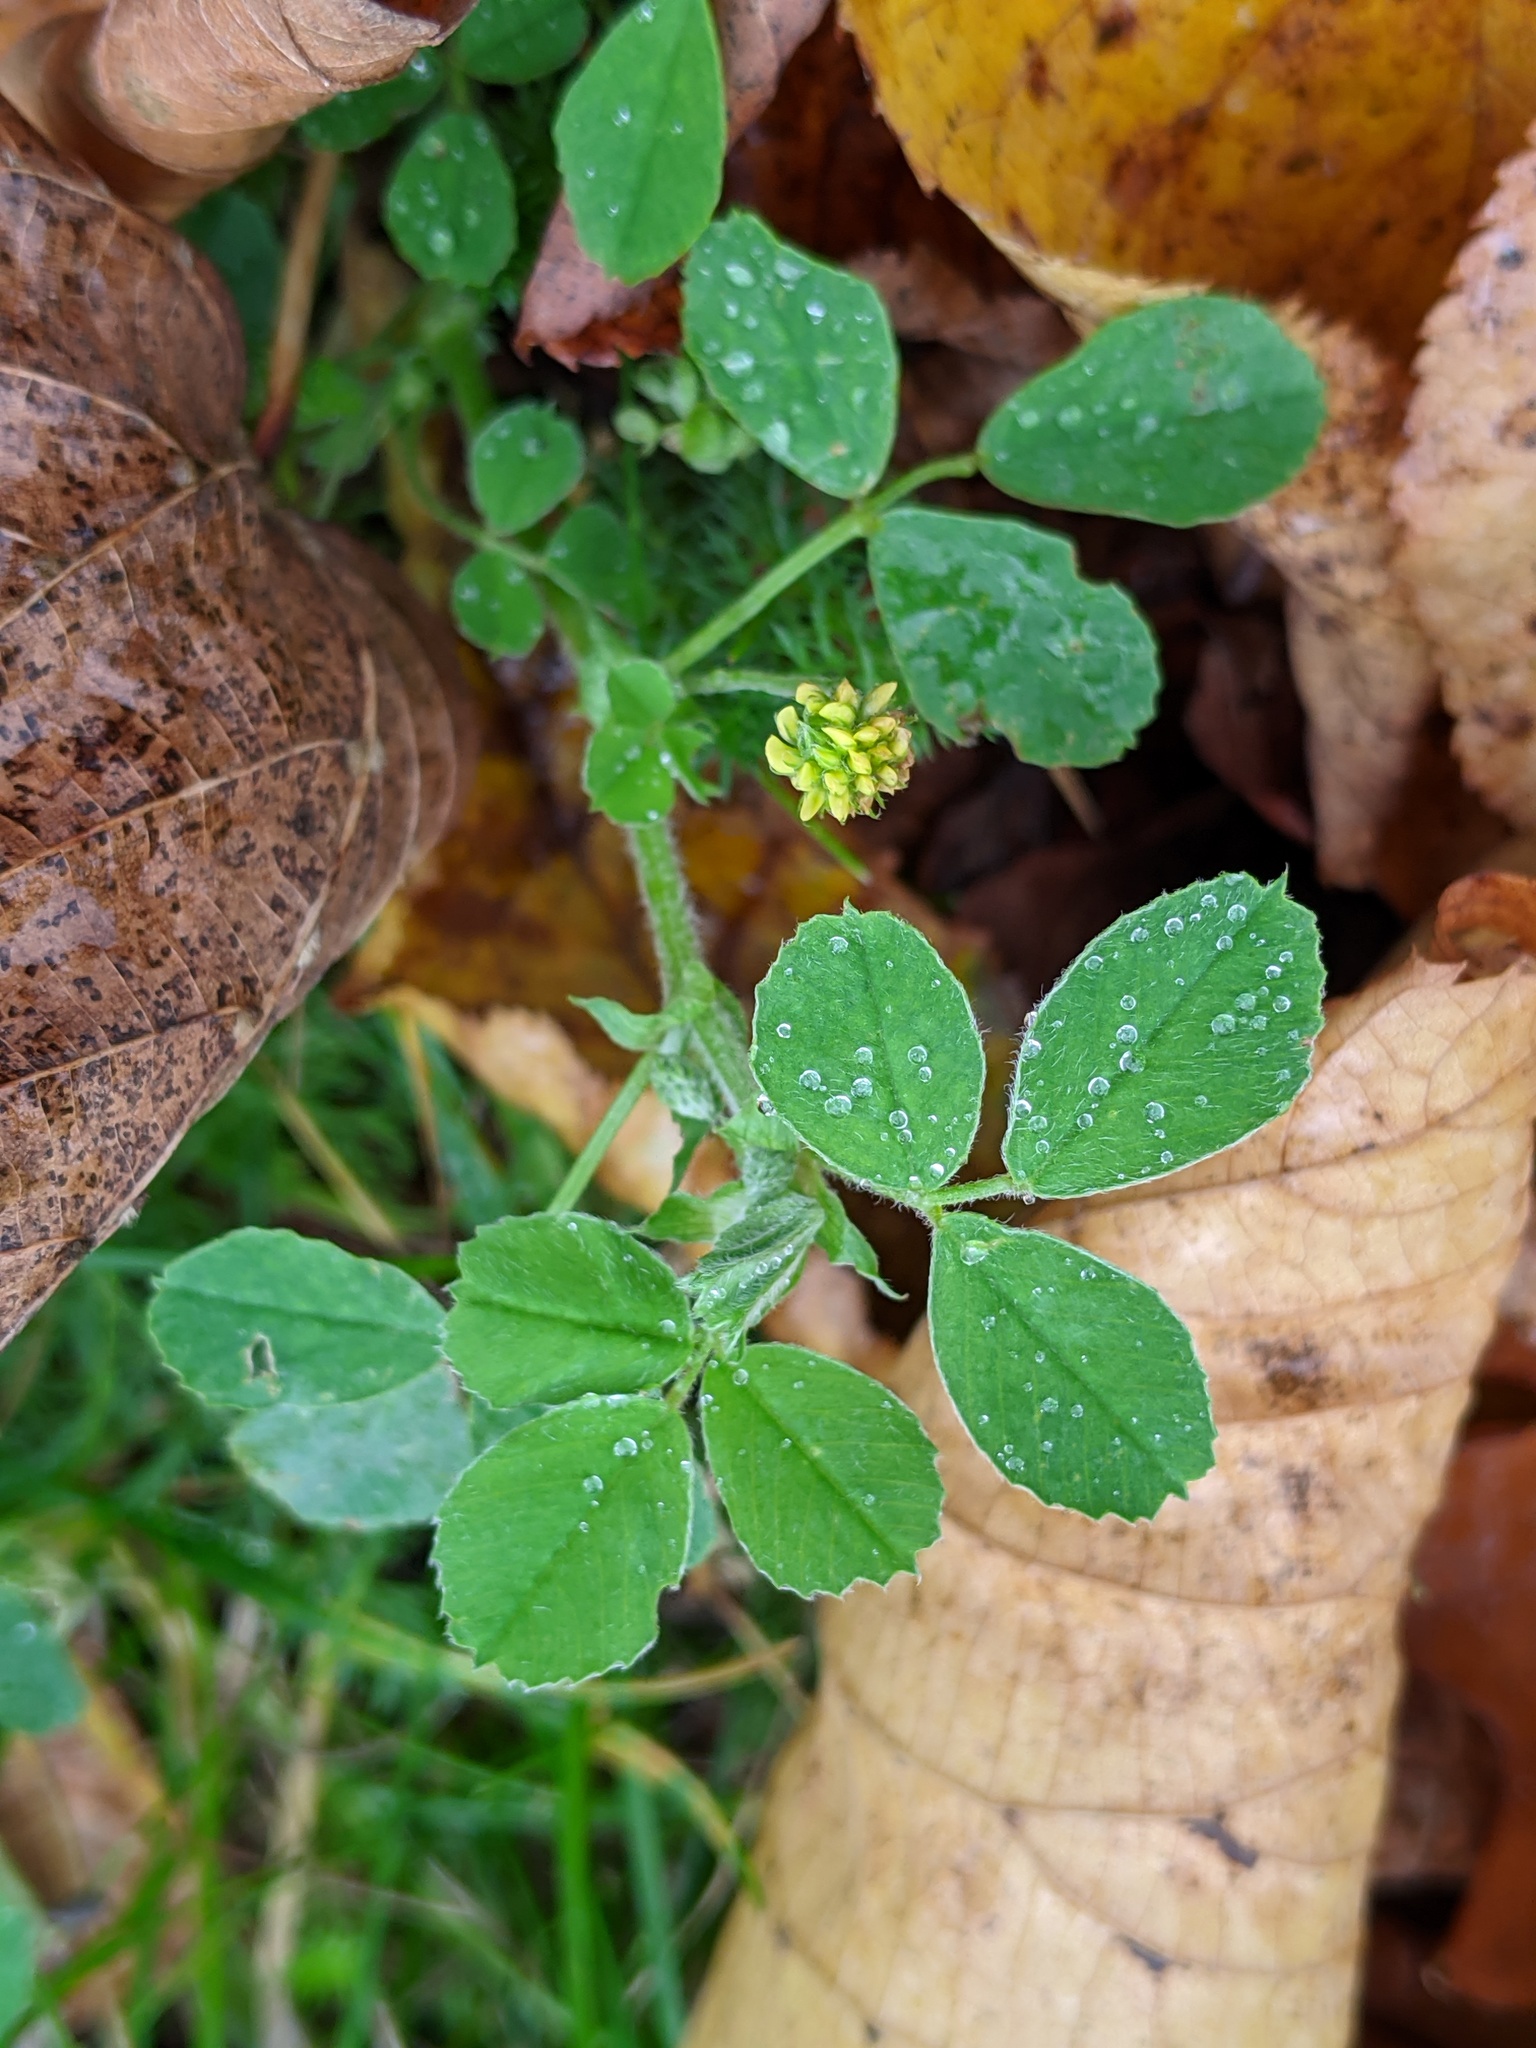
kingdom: Plantae
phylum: Tracheophyta
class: Magnoliopsida
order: Fabales
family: Fabaceae
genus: Medicago
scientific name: Medicago lupulina
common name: Black medick
